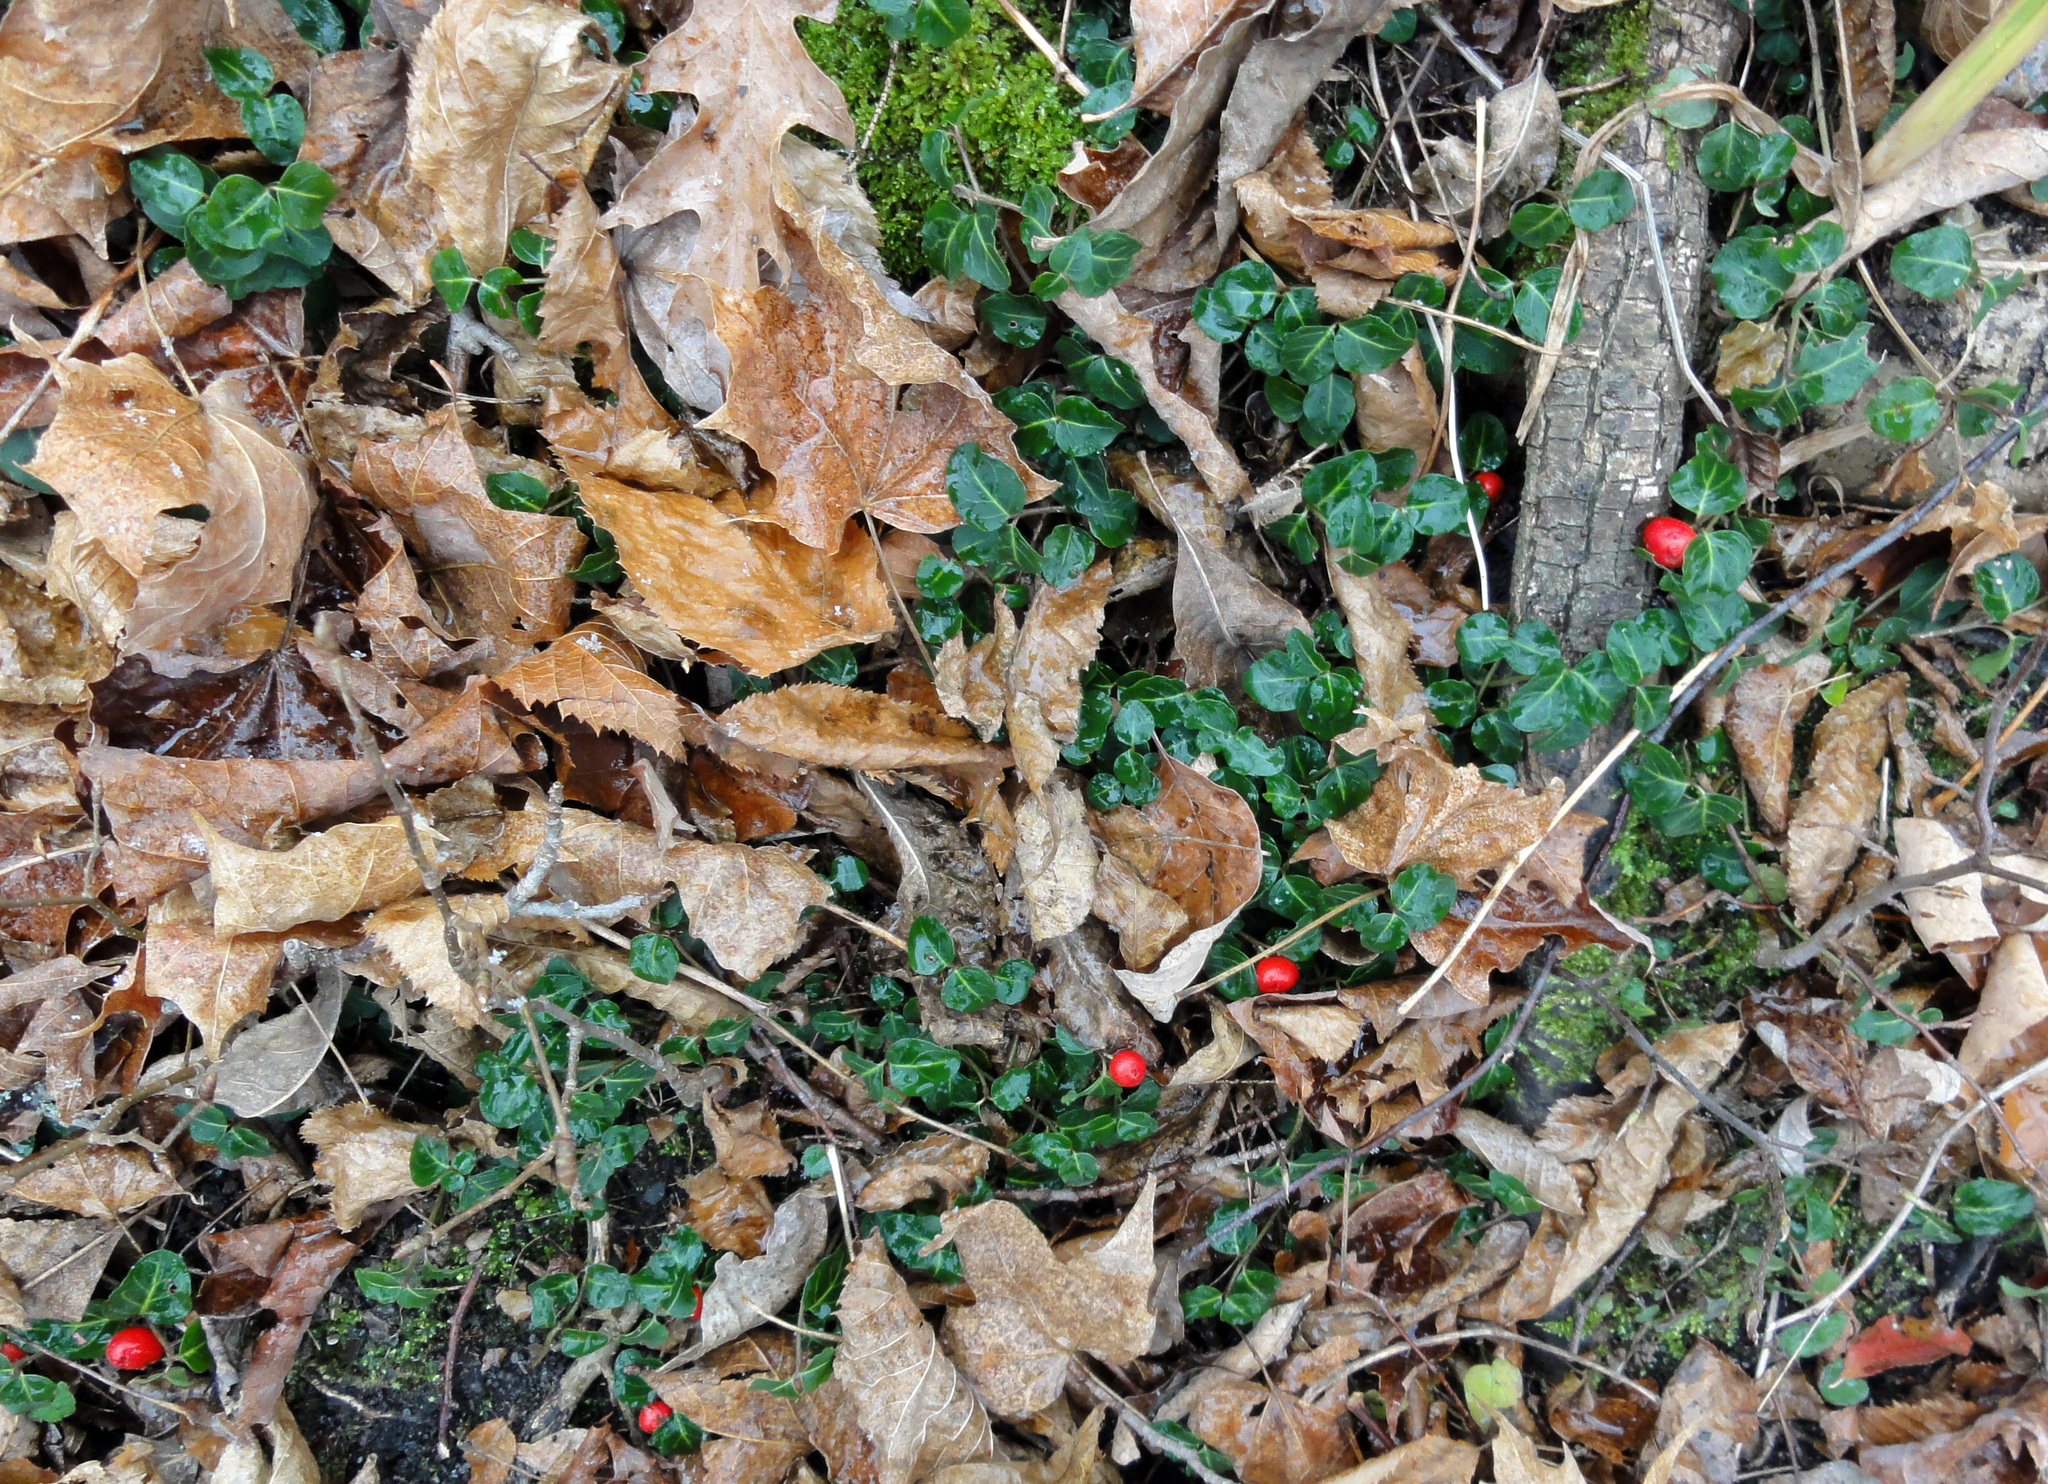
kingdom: Plantae
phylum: Tracheophyta
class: Magnoliopsida
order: Gentianales
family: Rubiaceae
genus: Mitchella
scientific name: Mitchella repens
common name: Partridge-berry
